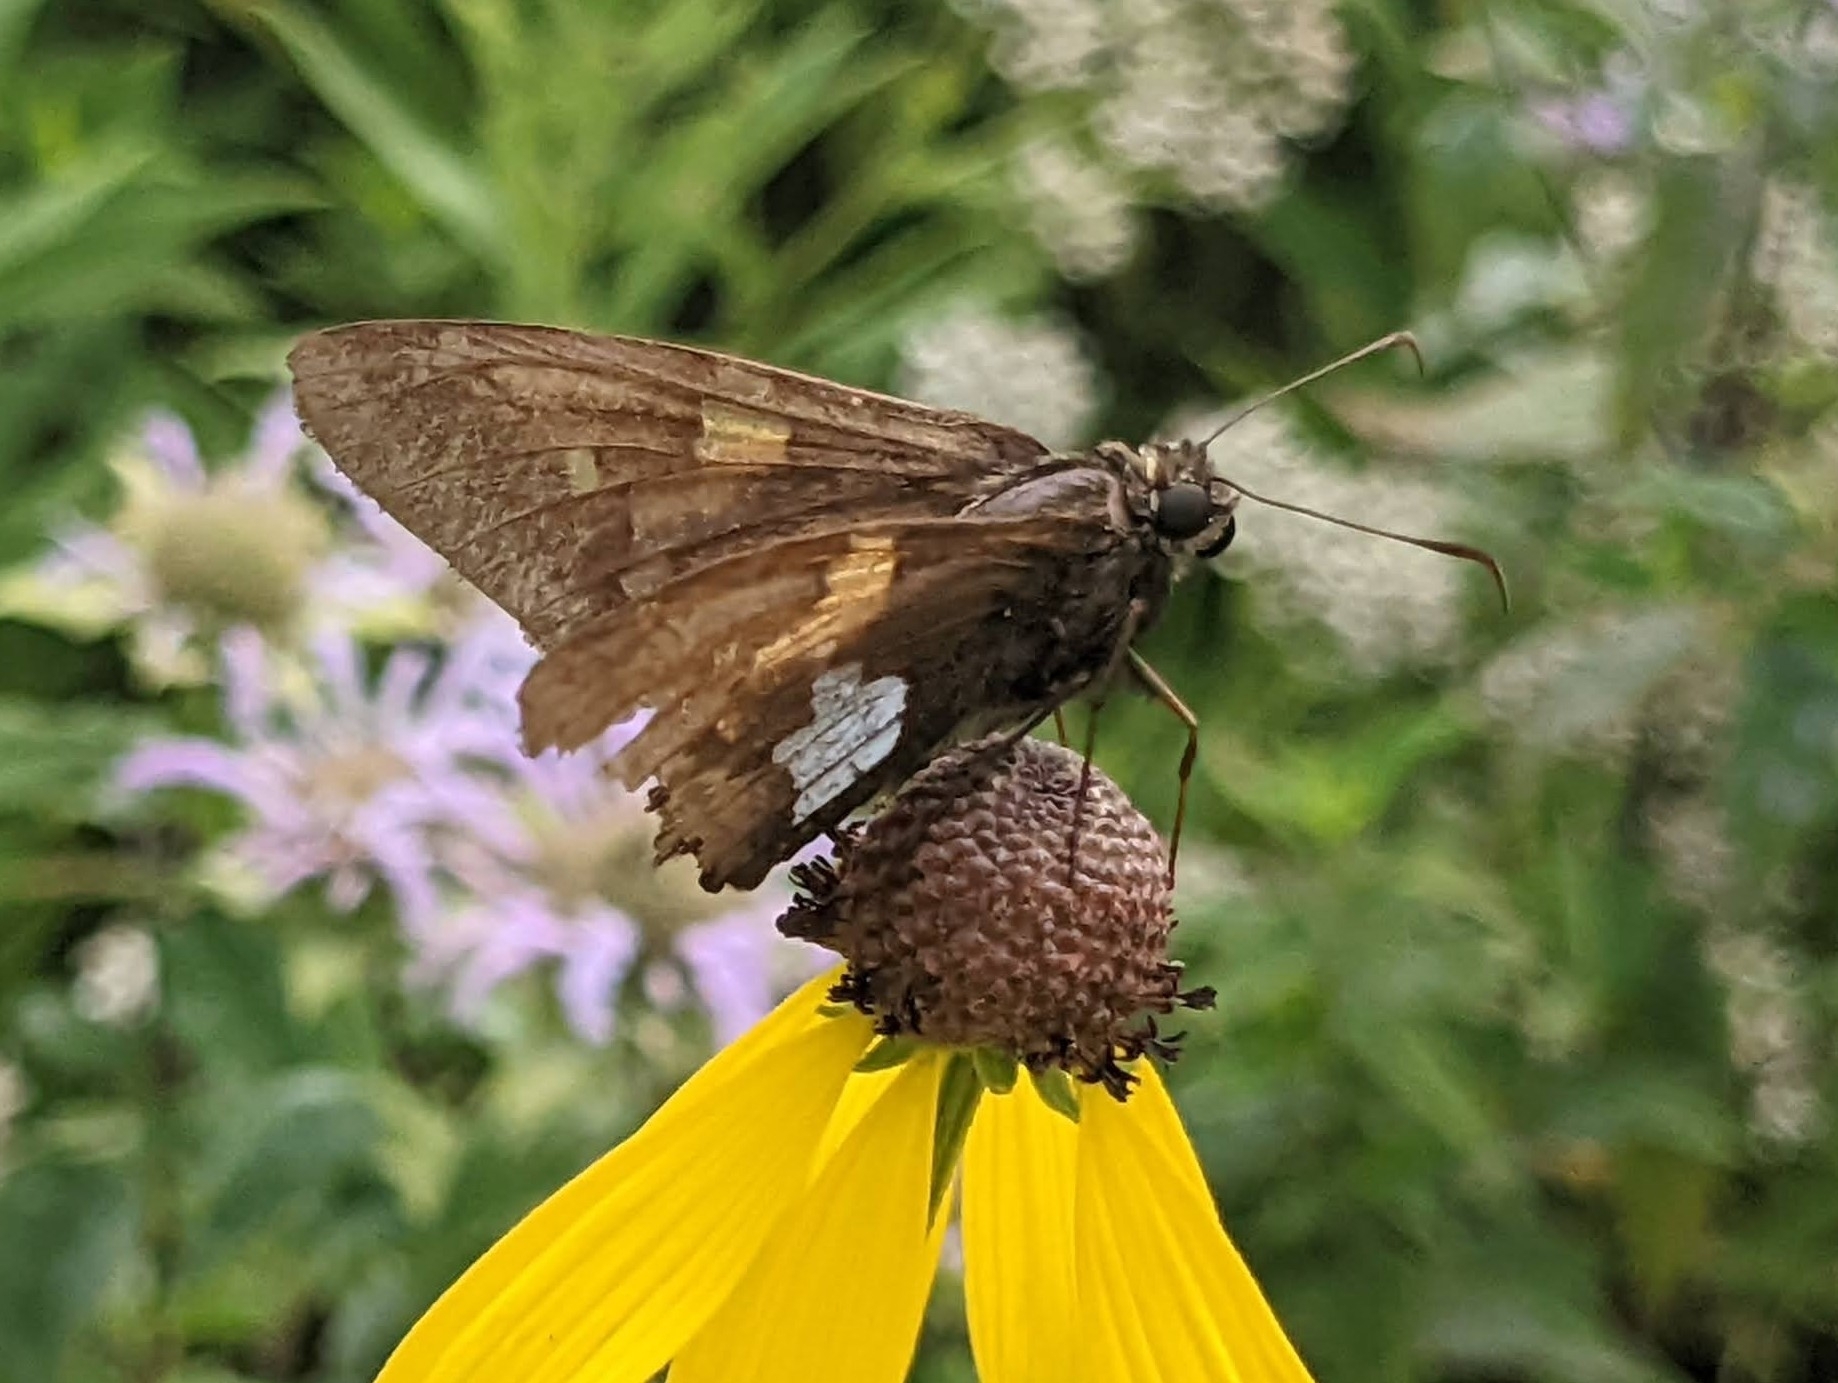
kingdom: Animalia
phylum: Arthropoda
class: Insecta
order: Lepidoptera
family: Hesperiidae
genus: Epargyreus
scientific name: Epargyreus clarus
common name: Silver-spotted skipper
